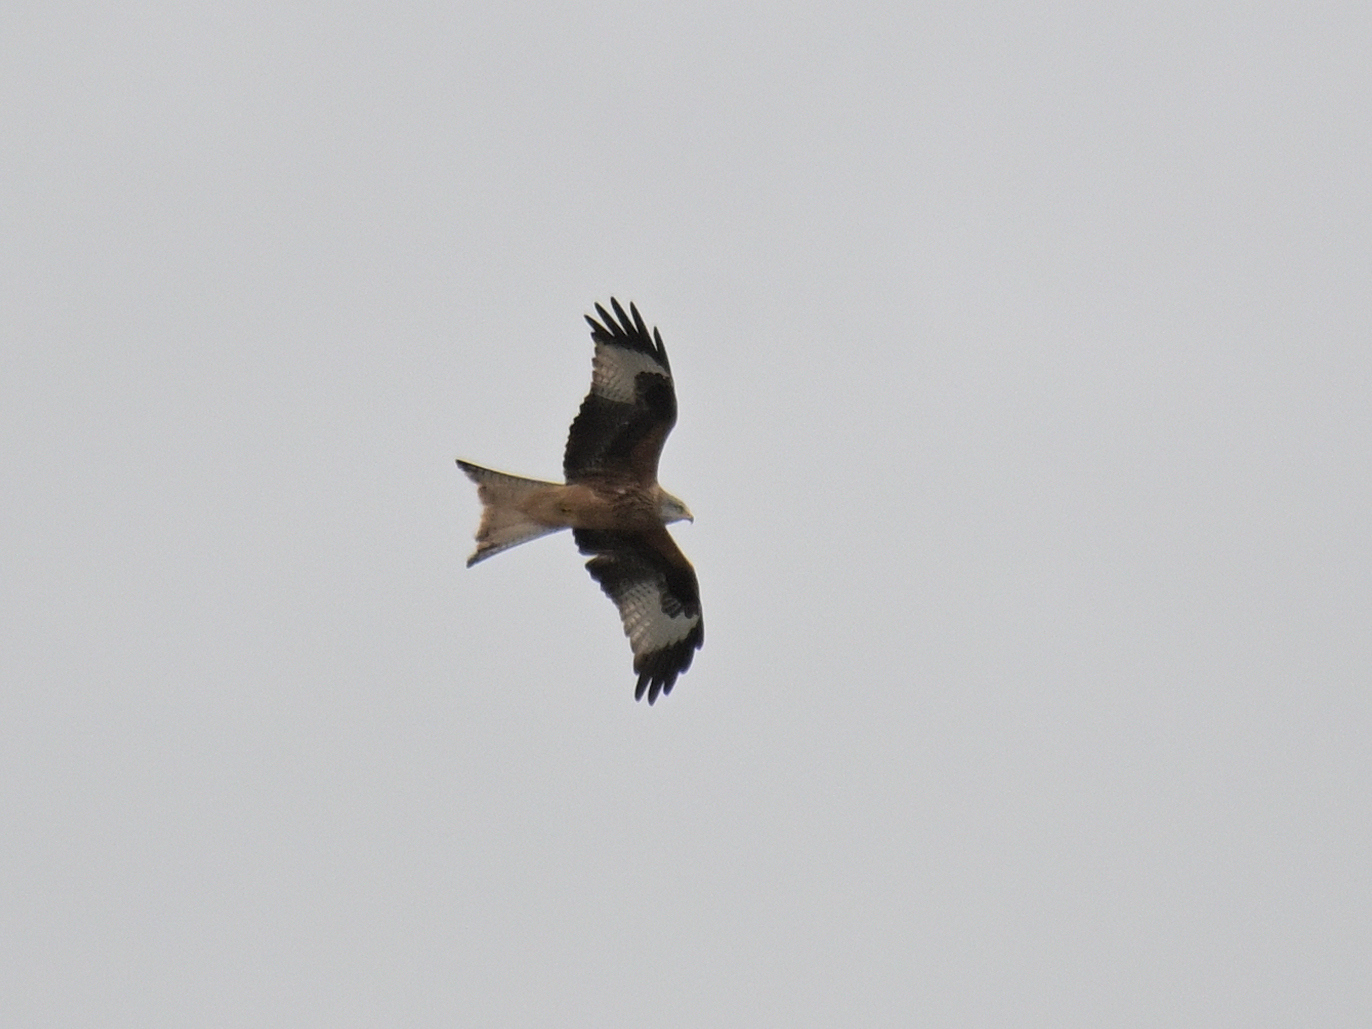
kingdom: Animalia
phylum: Chordata
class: Aves
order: Accipitriformes
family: Accipitridae
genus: Milvus
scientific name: Milvus milvus
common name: Red kite
